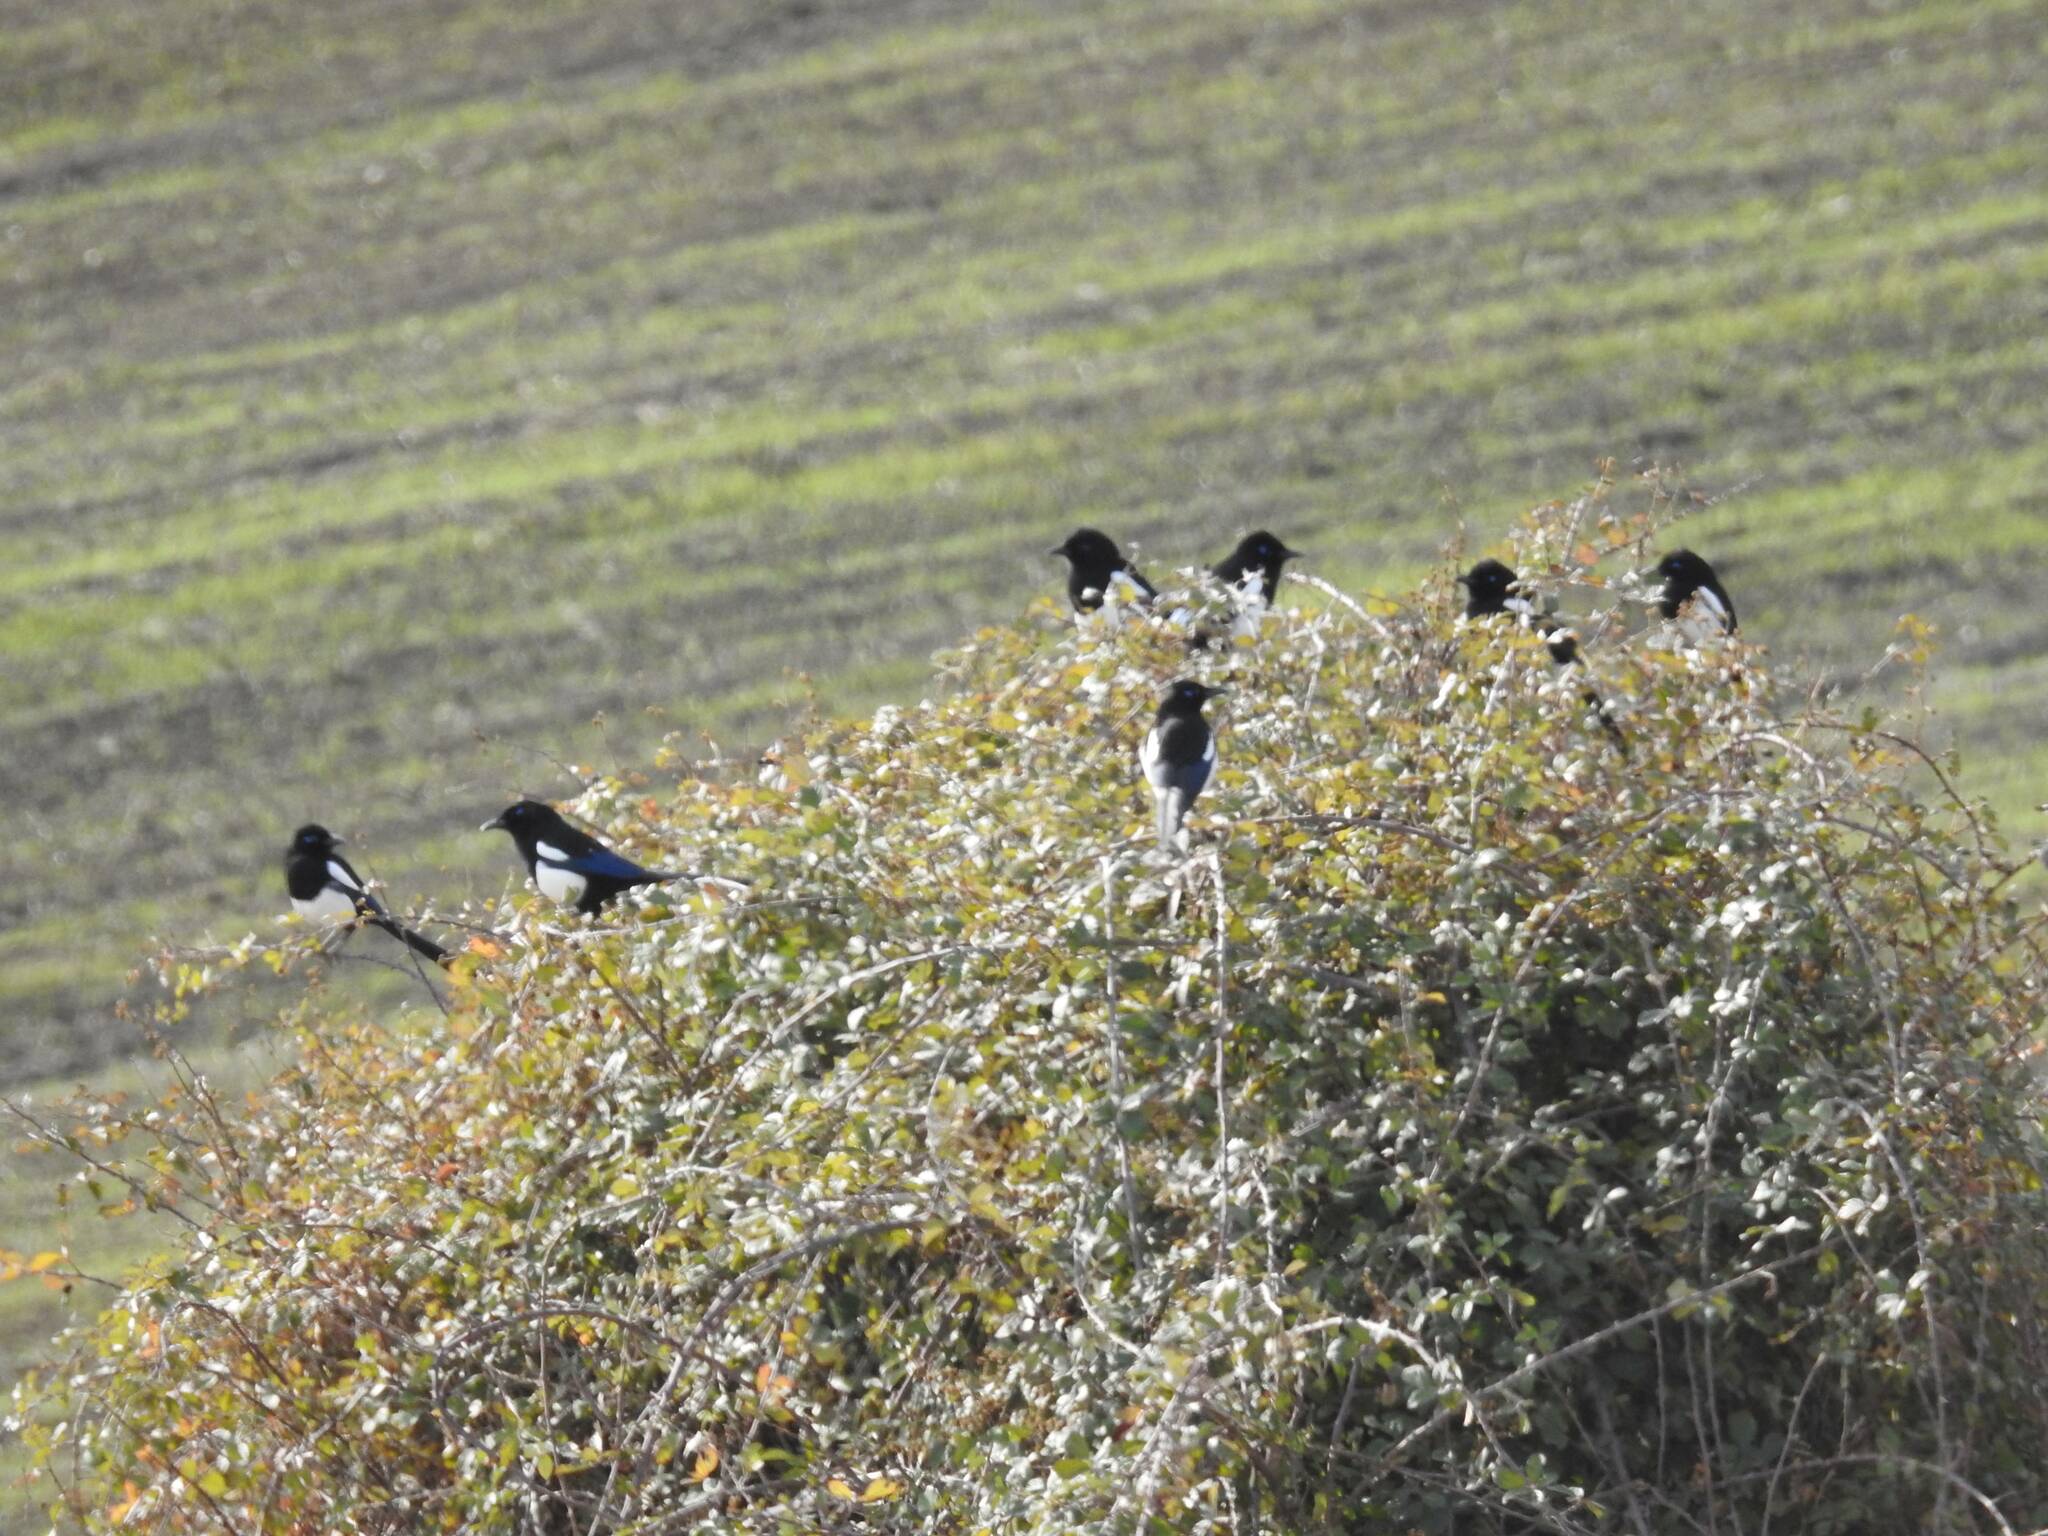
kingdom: Animalia
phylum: Chordata
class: Aves
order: Passeriformes
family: Corvidae
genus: Pica
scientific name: Pica mauritanica
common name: Maghreb magpie
